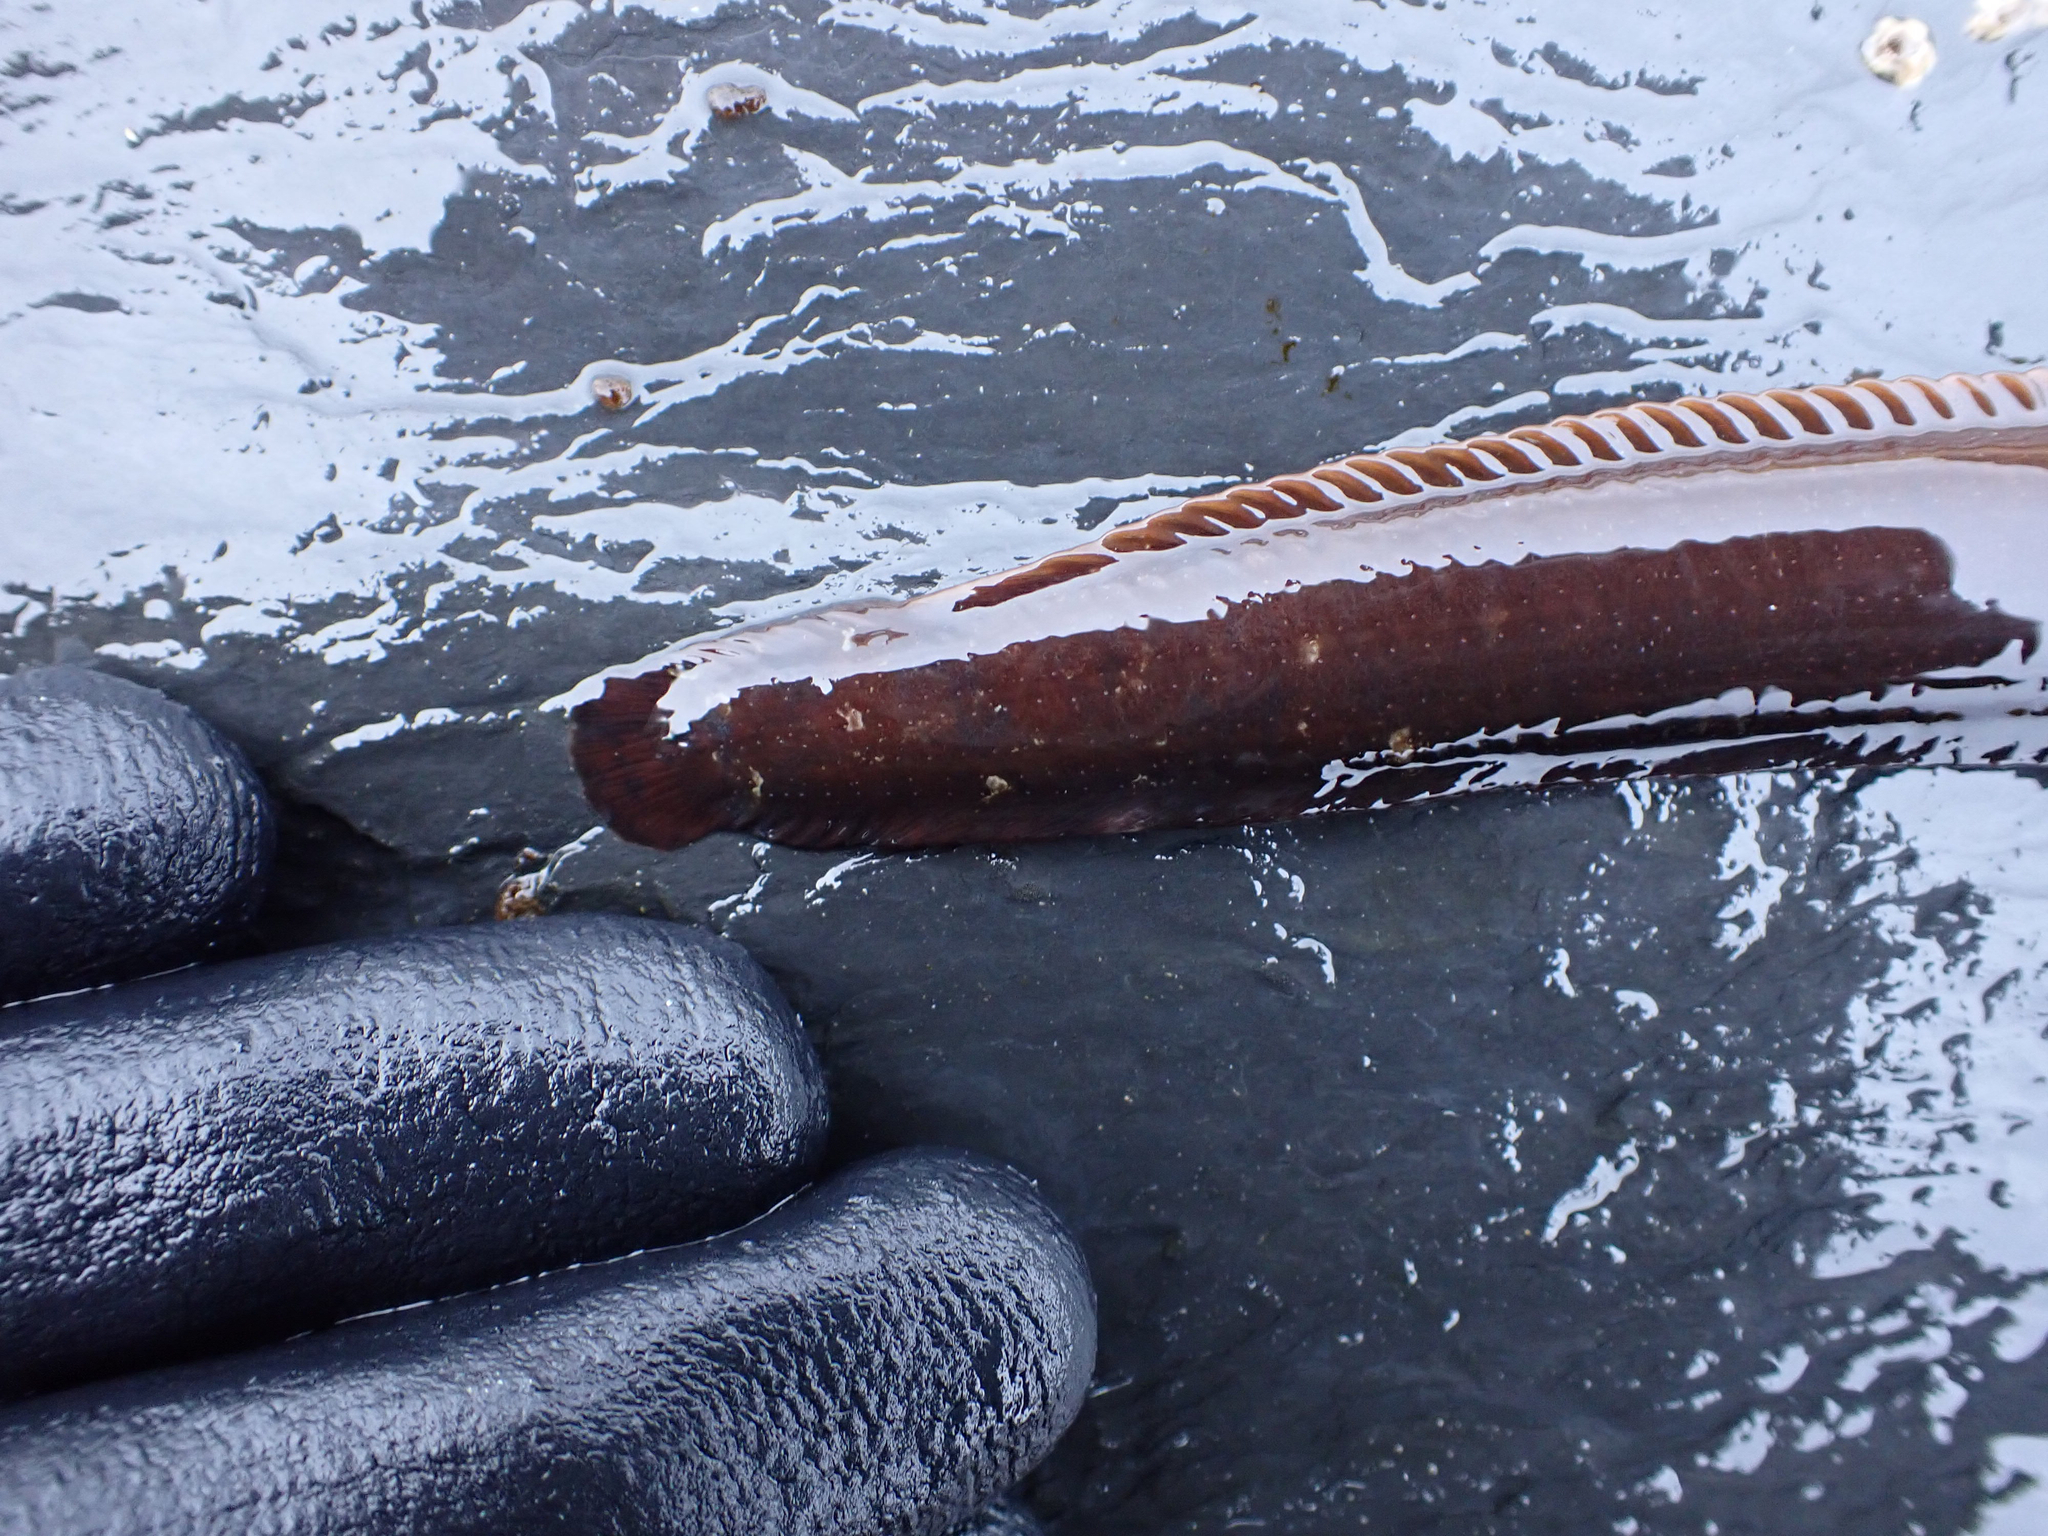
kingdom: Animalia
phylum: Chordata
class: Ascidiacea
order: Stolidobranchia
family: Pyuridae
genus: Boltenia
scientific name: Boltenia villosa
